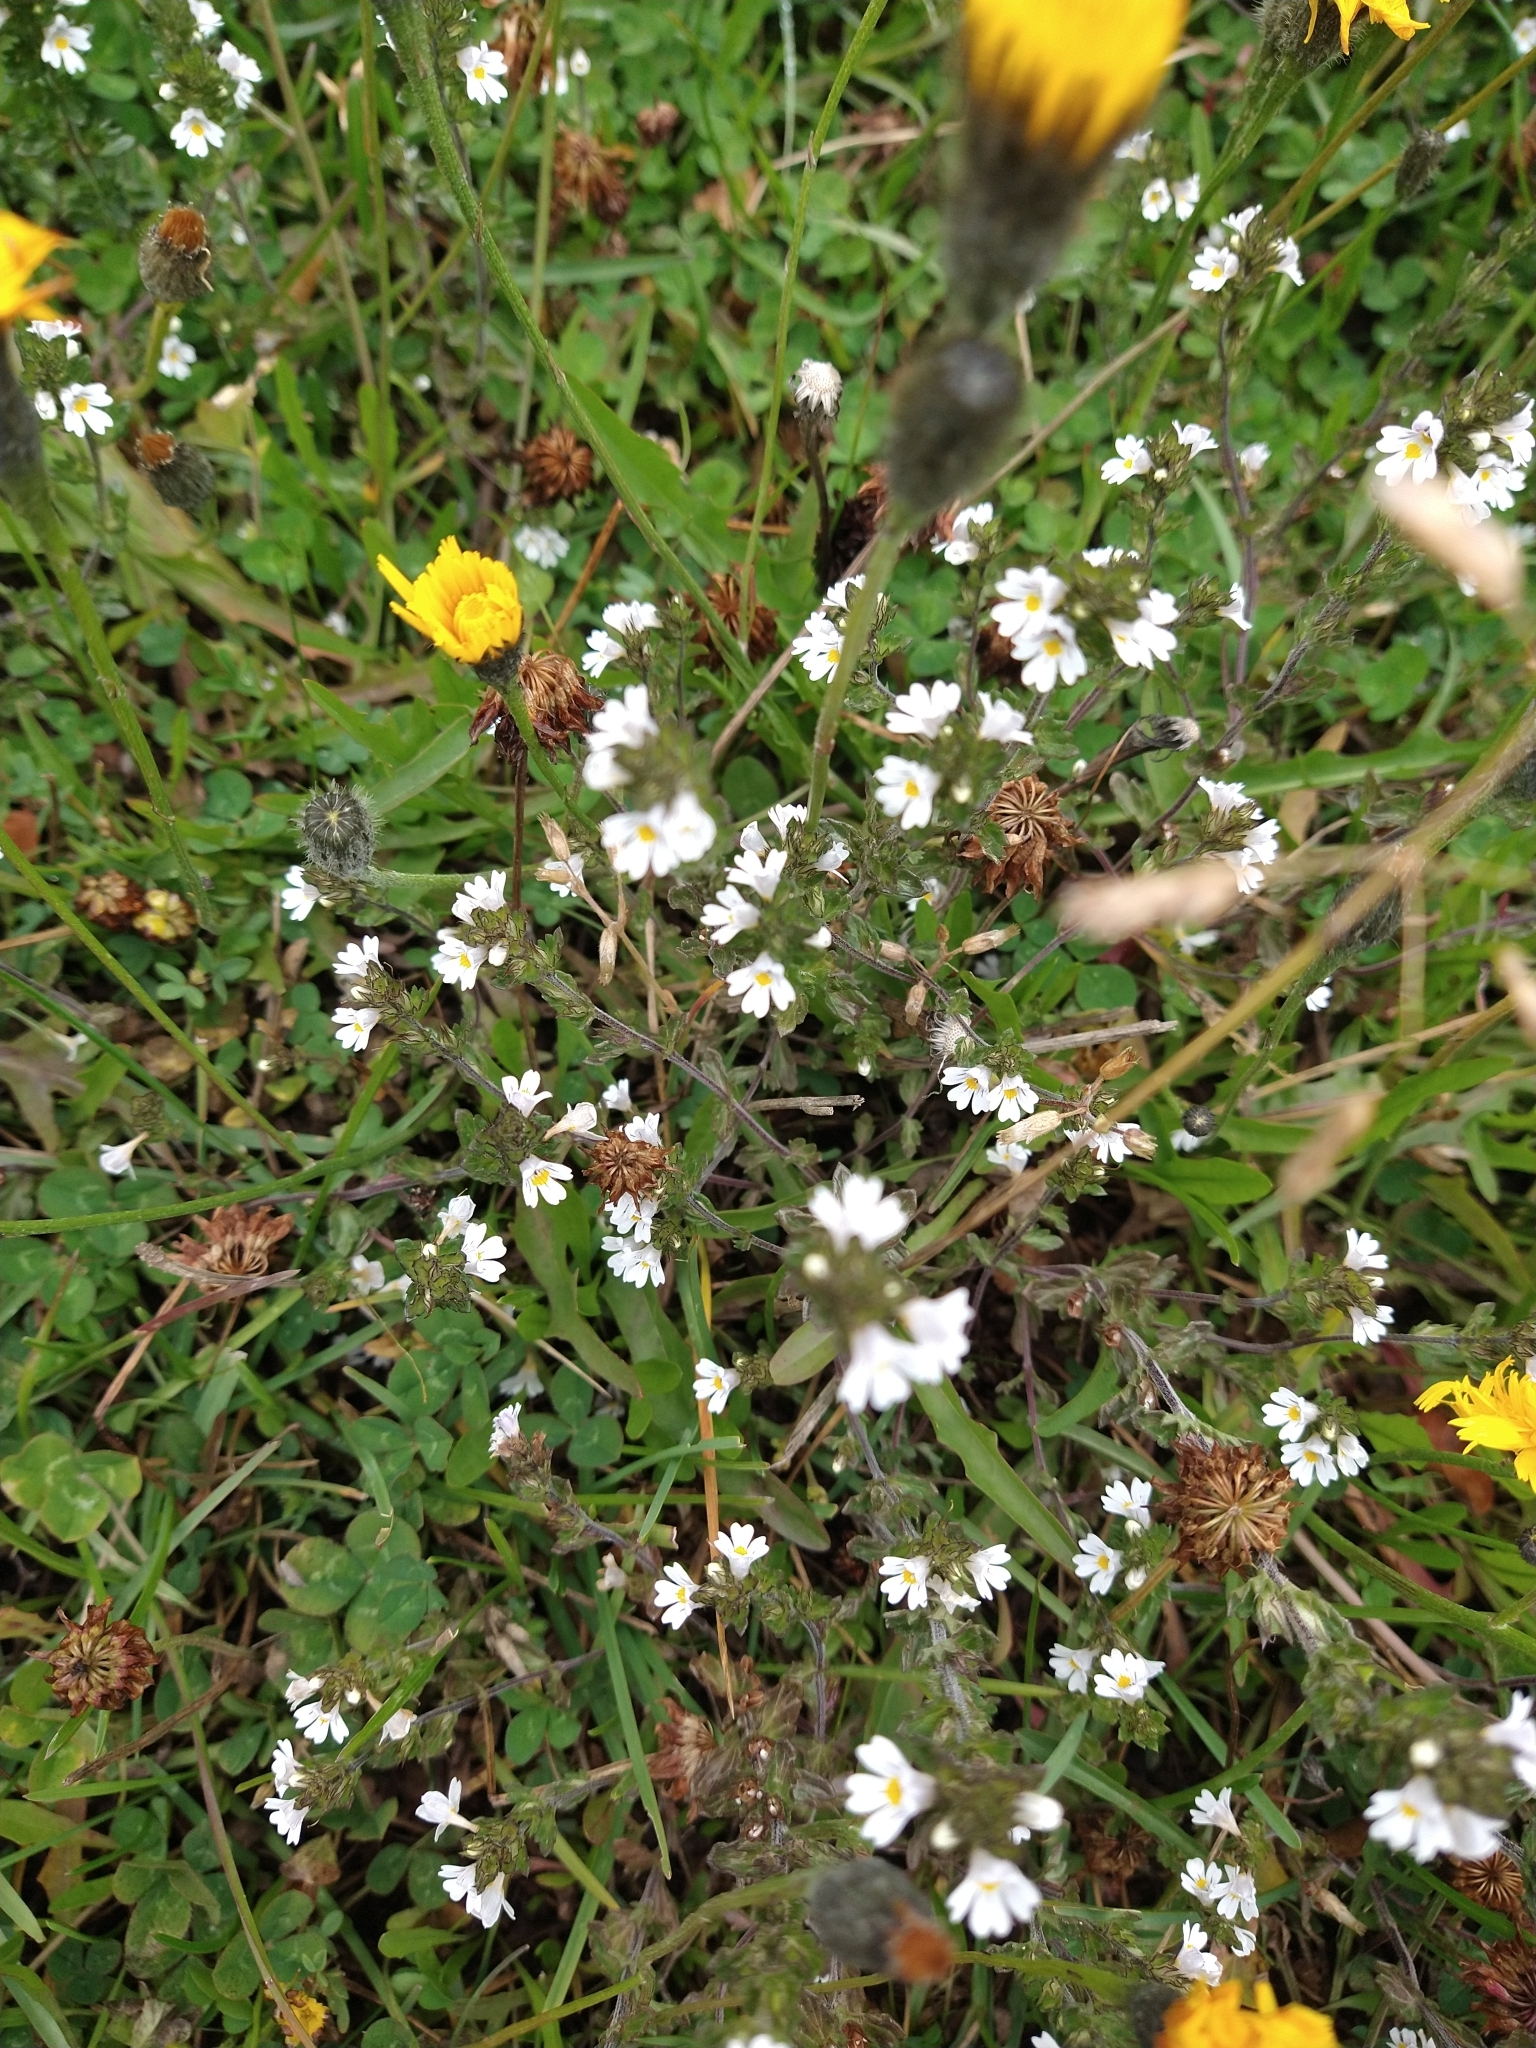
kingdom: Plantae
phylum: Tracheophyta
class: Magnoliopsida
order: Lamiales
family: Orobanchaceae
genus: Euphrasia
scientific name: Euphrasia officinalis
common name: Eyebright
